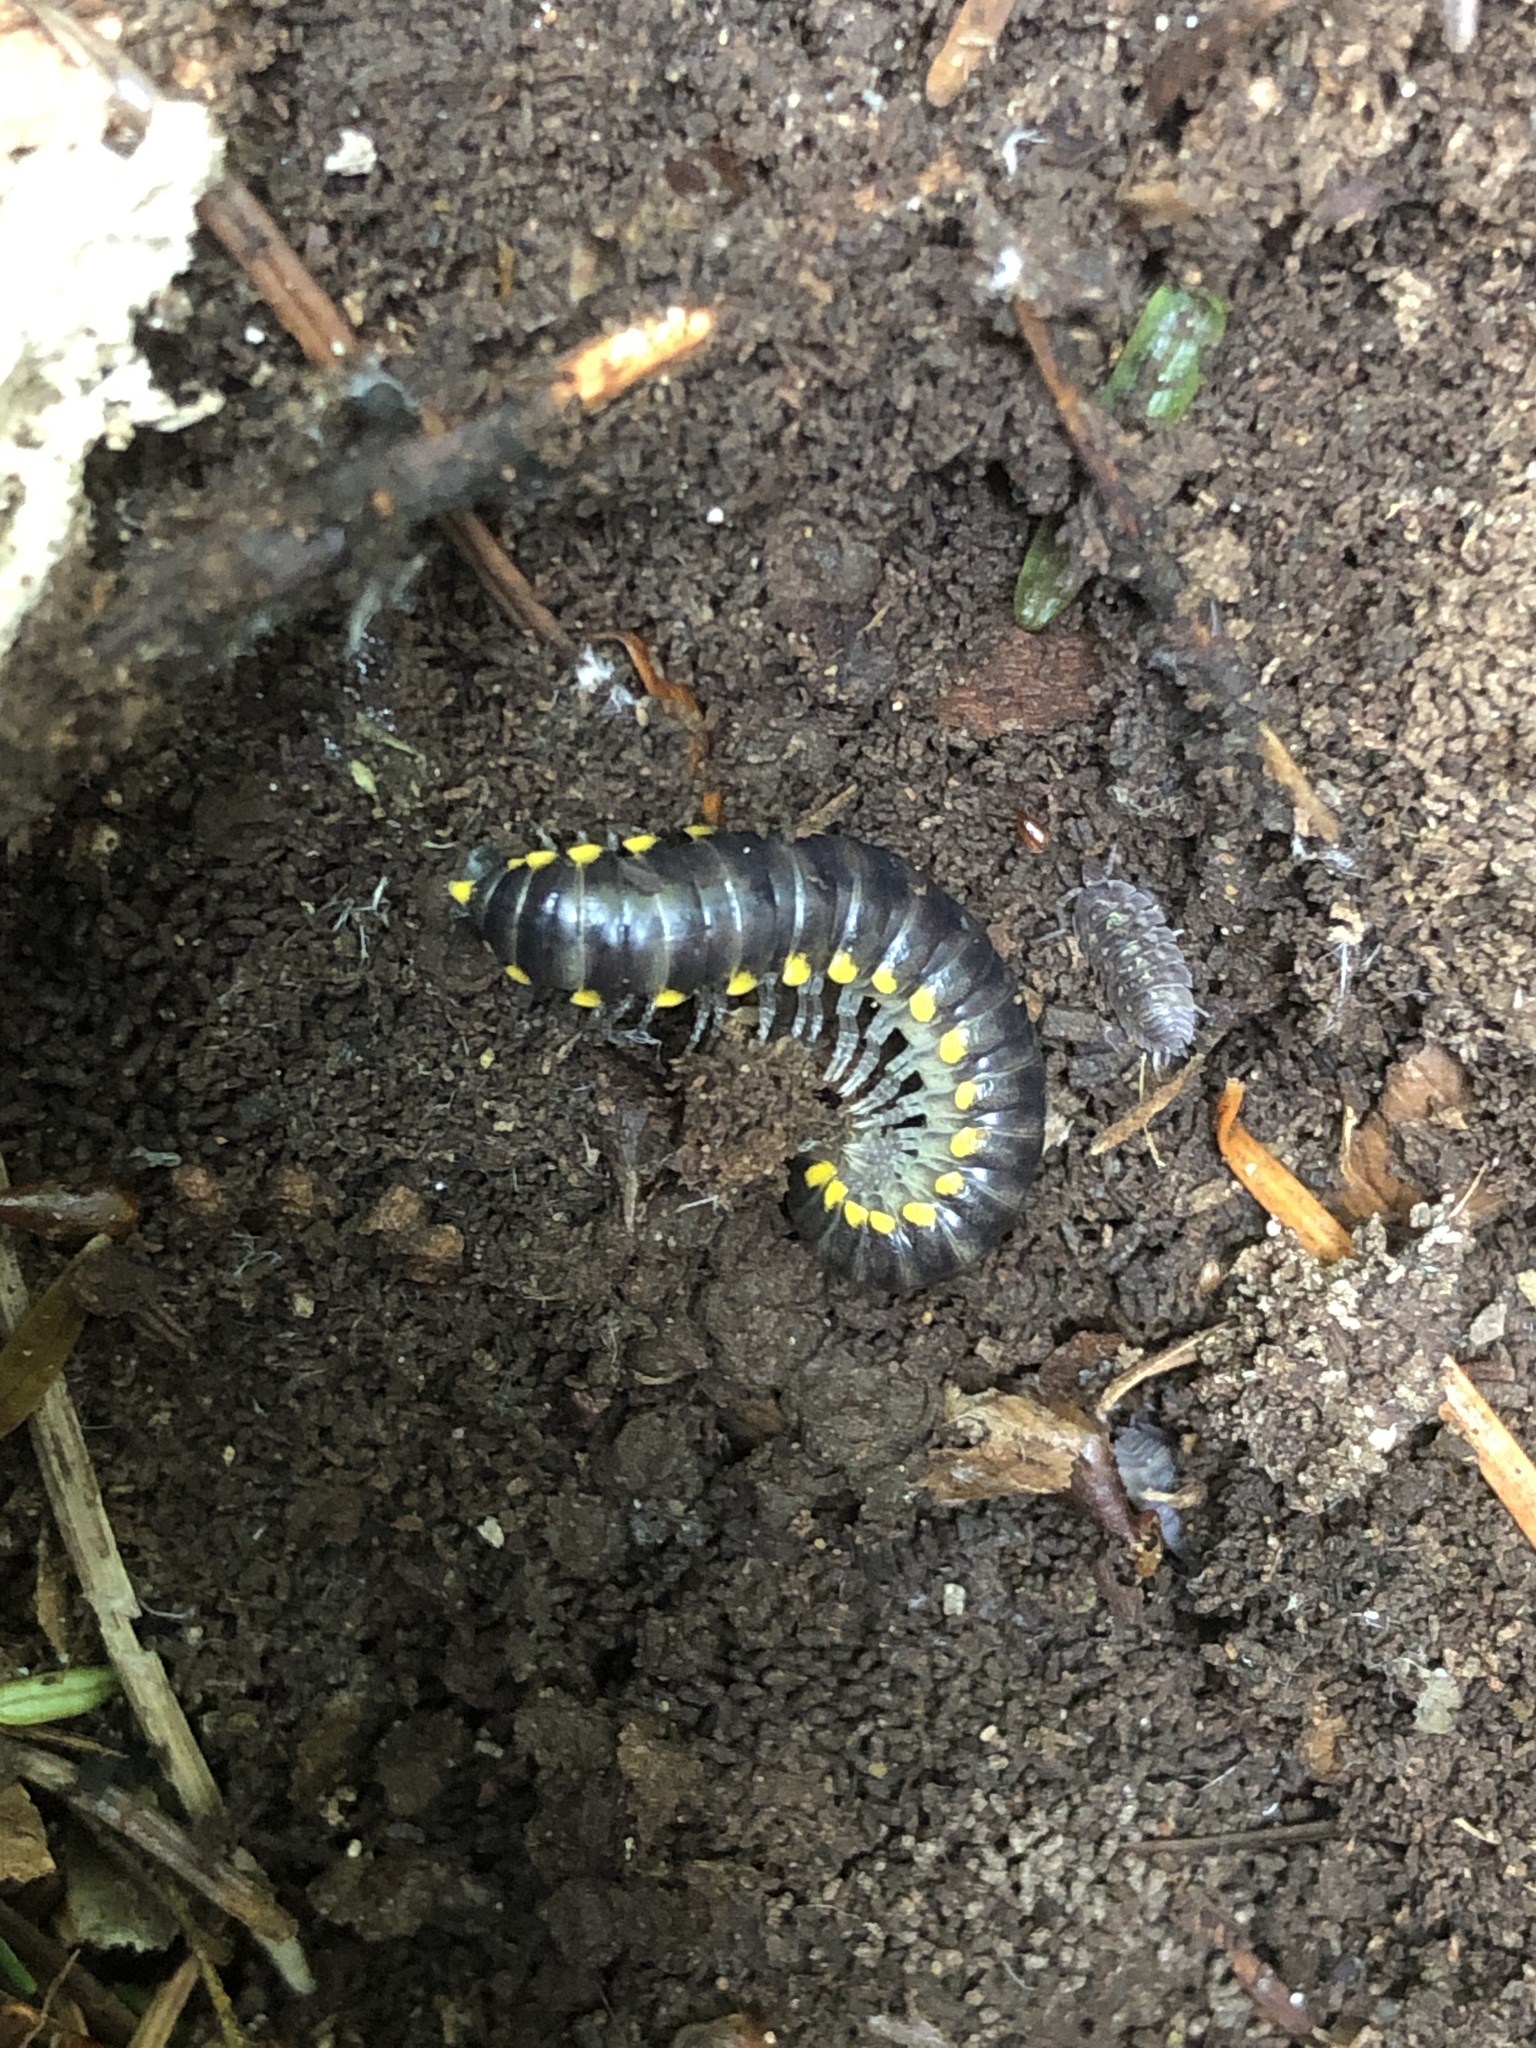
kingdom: Animalia
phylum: Arthropoda
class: Diplopoda
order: Polydesmida
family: Xystodesmidae
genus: Harpaphe
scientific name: Harpaphe haydeniana
